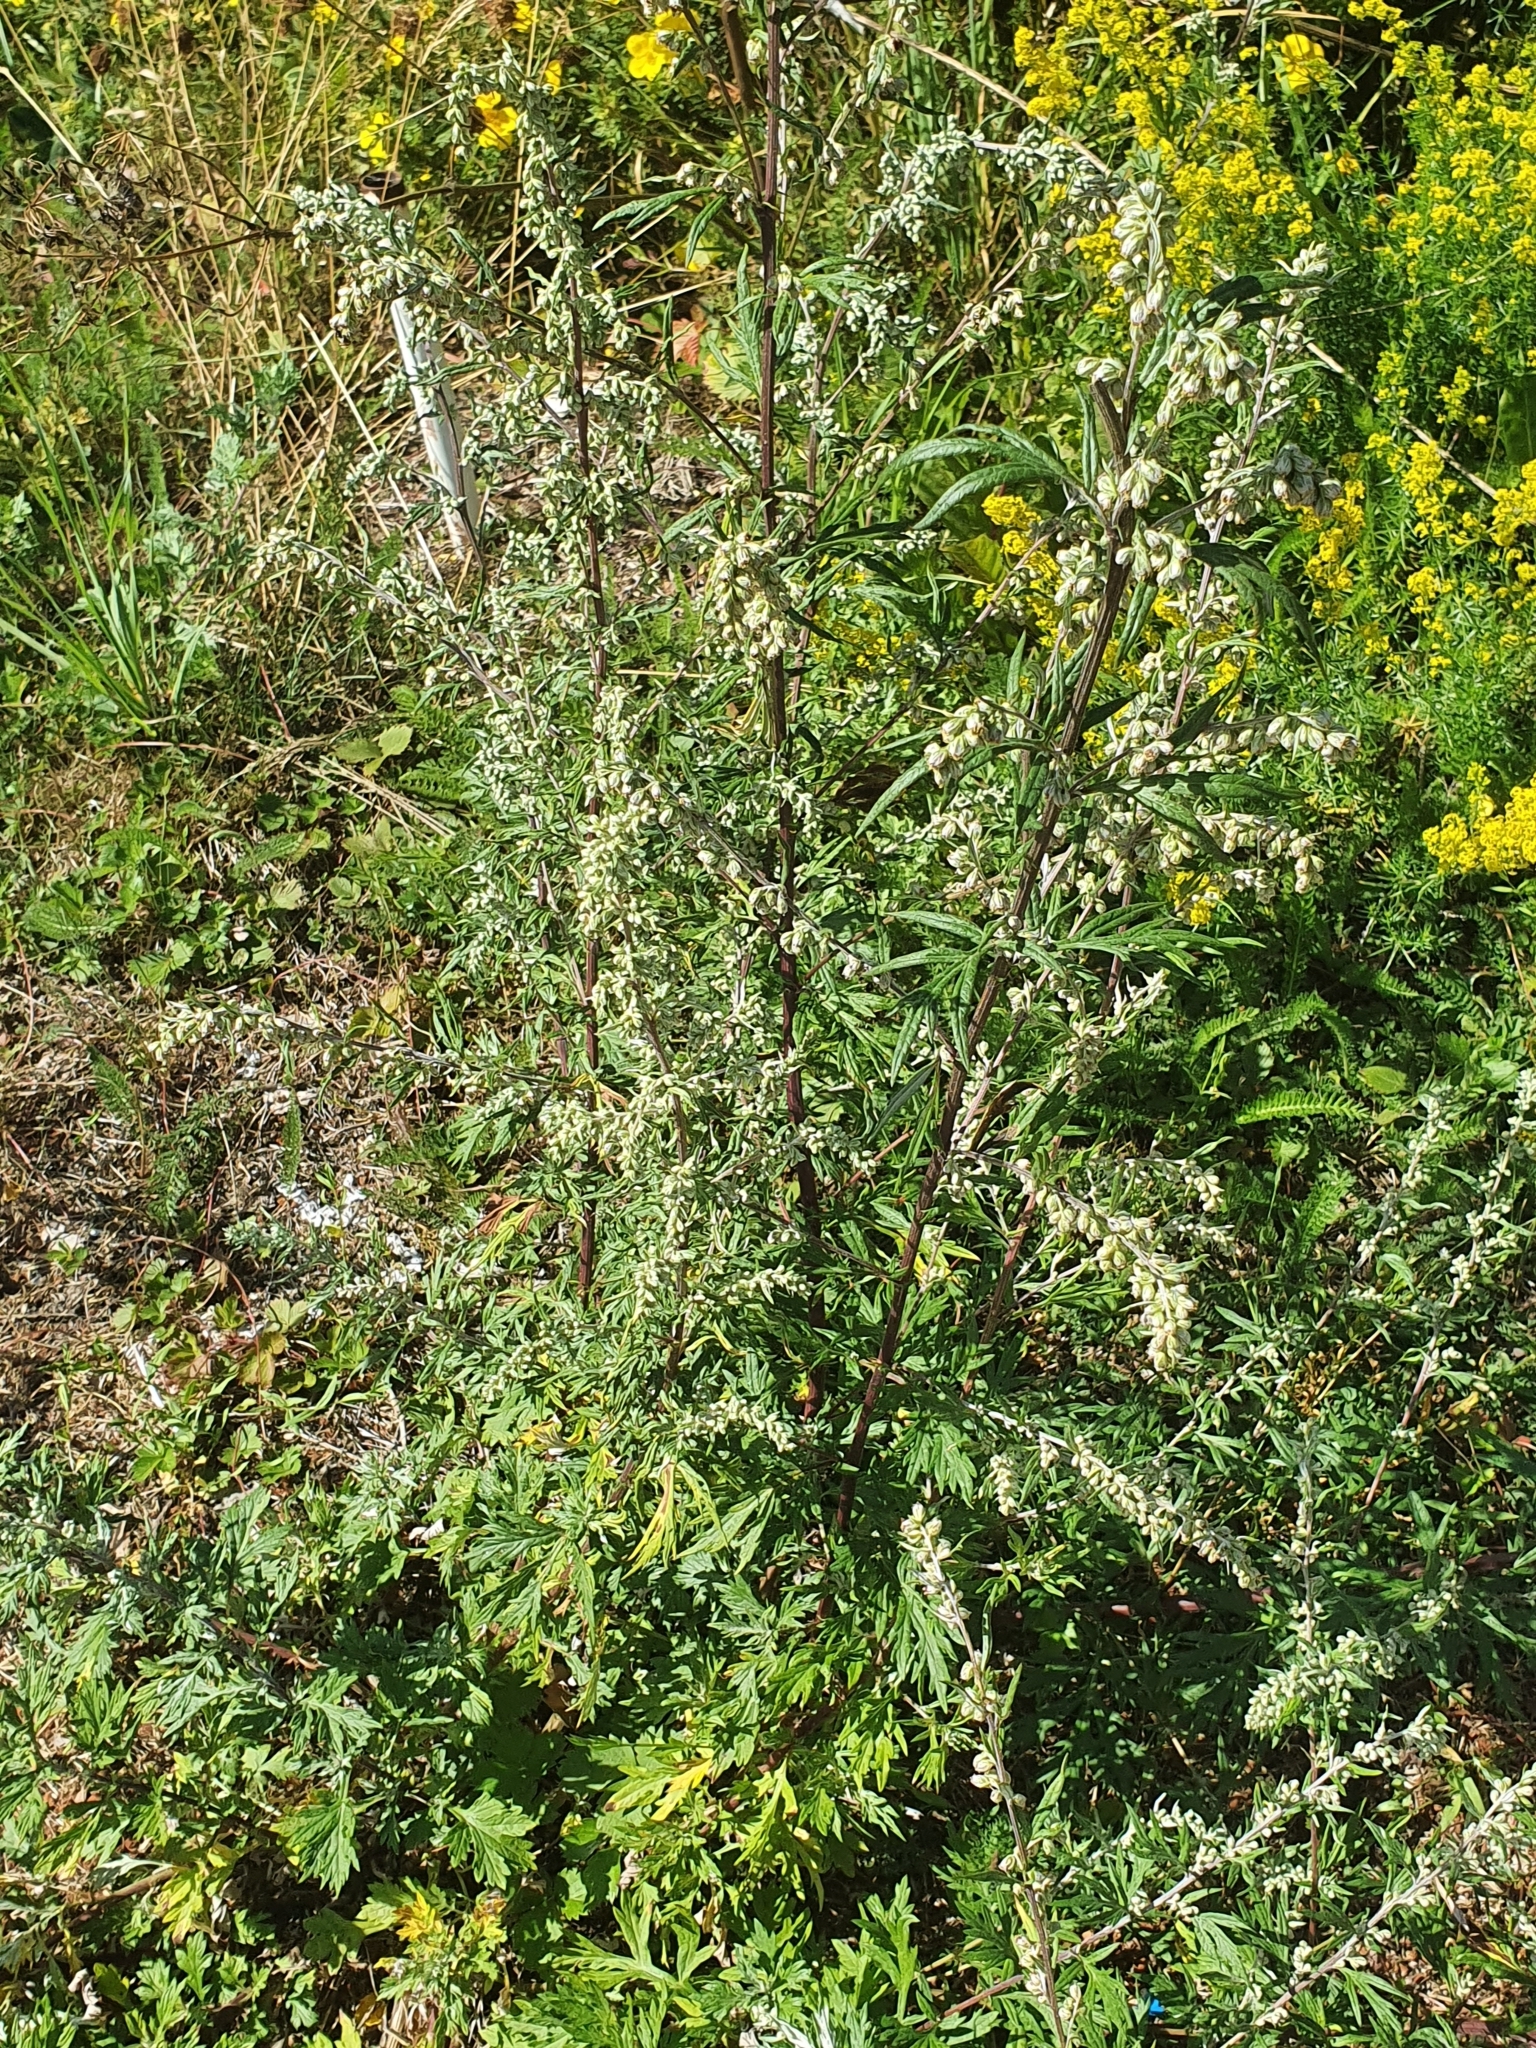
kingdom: Plantae
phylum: Tracheophyta
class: Magnoliopsida
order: Asterales
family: Asteraceae
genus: Artemisia
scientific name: Artemisia vulgaris
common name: Mugwort
